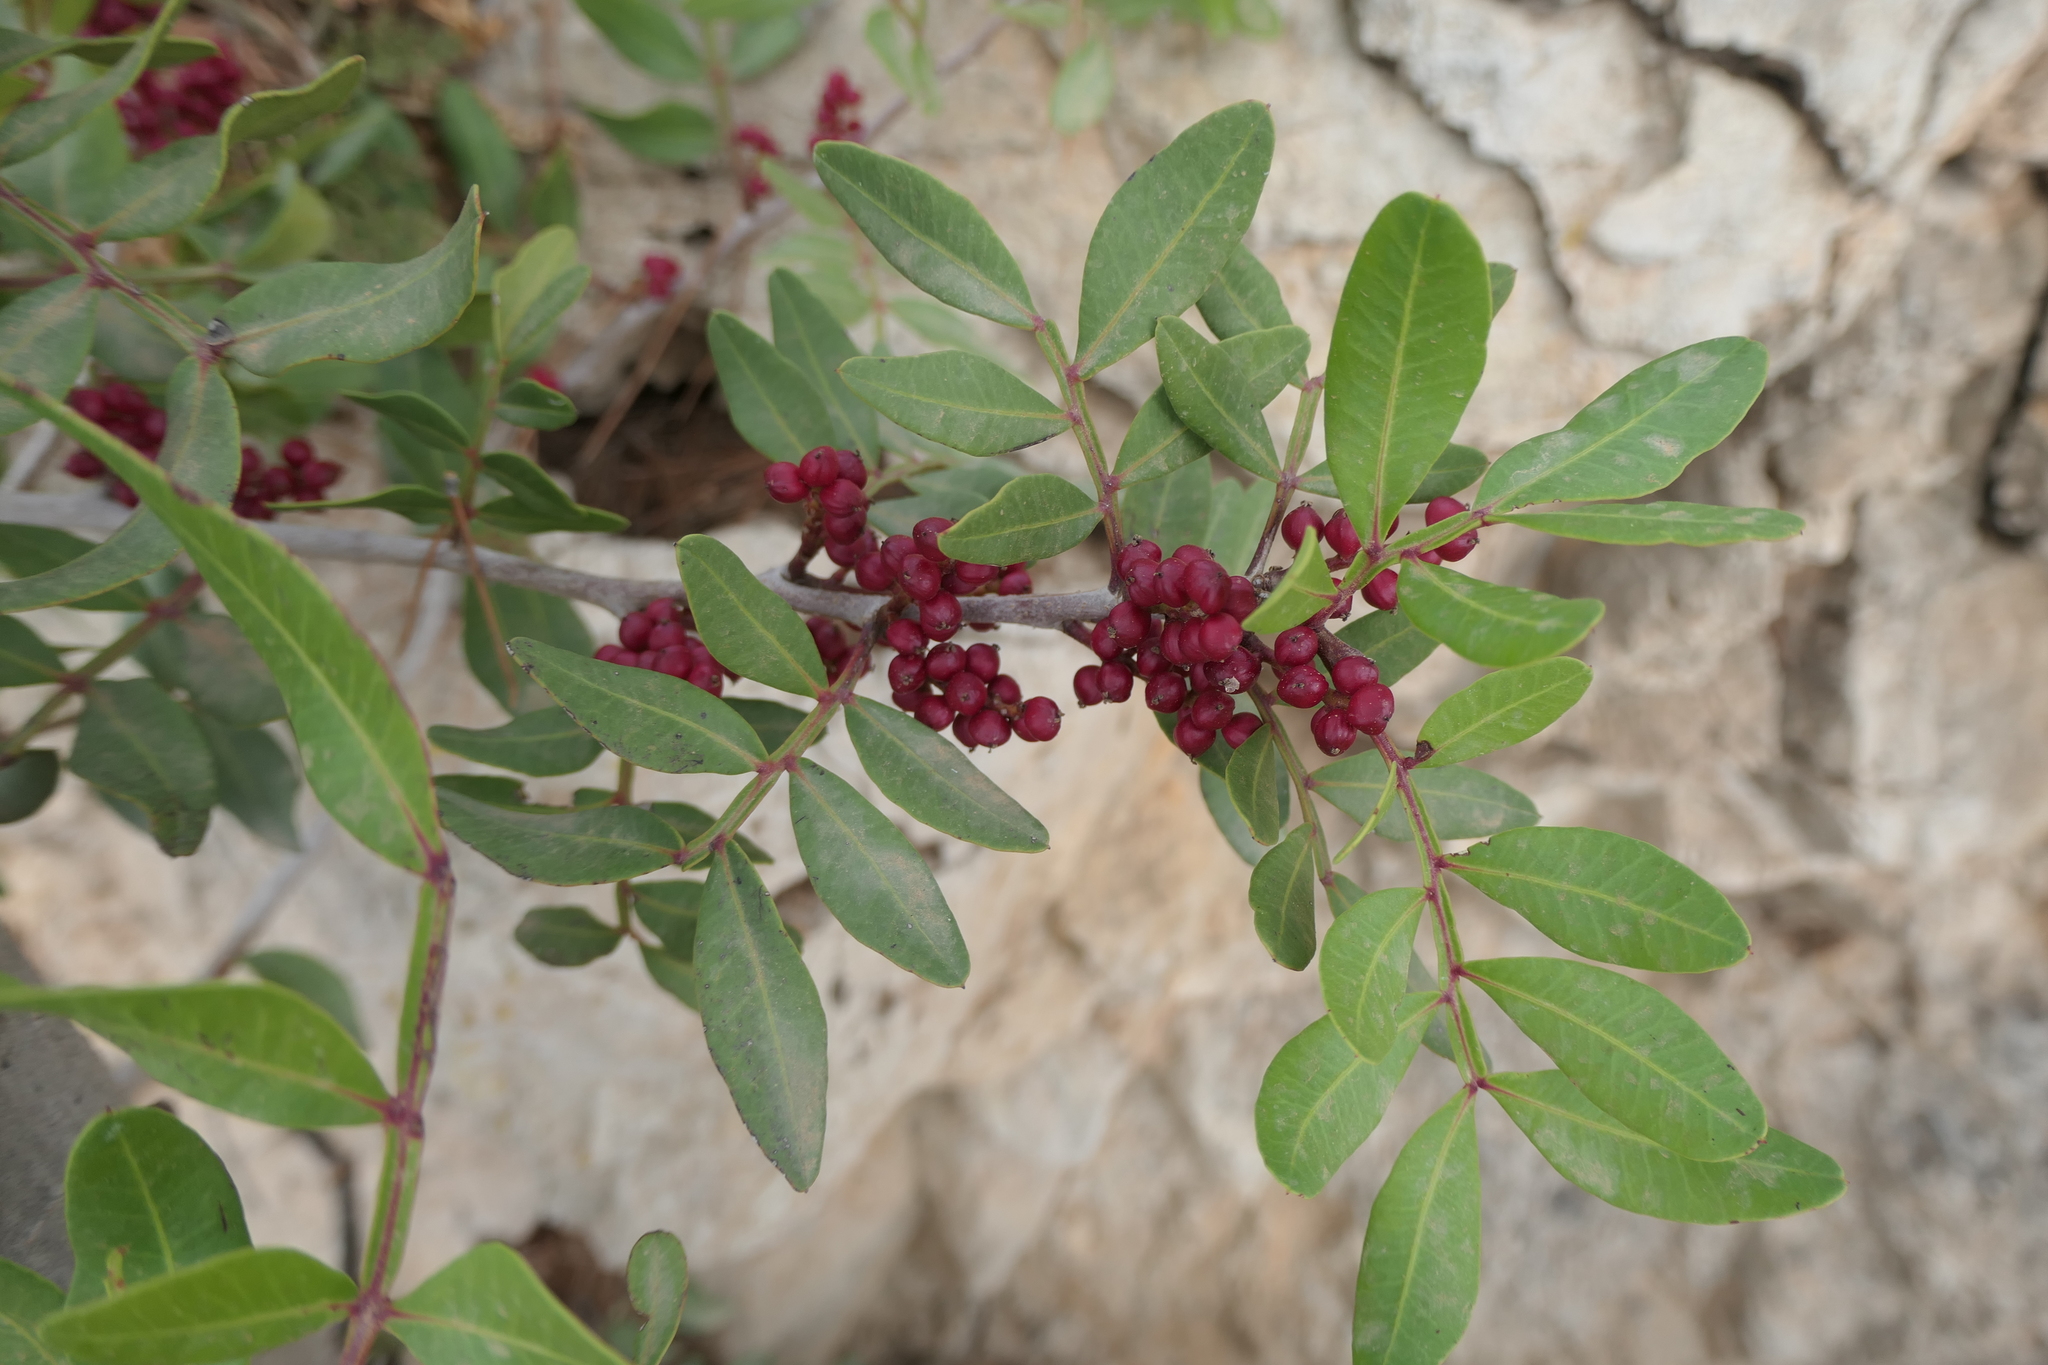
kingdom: Plantae
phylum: Tracheophyta
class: Magnoliopsida
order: Sapindales
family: Anacardiaceae
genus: Pistacia
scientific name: Pistacia lentiscus
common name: Lentisk
